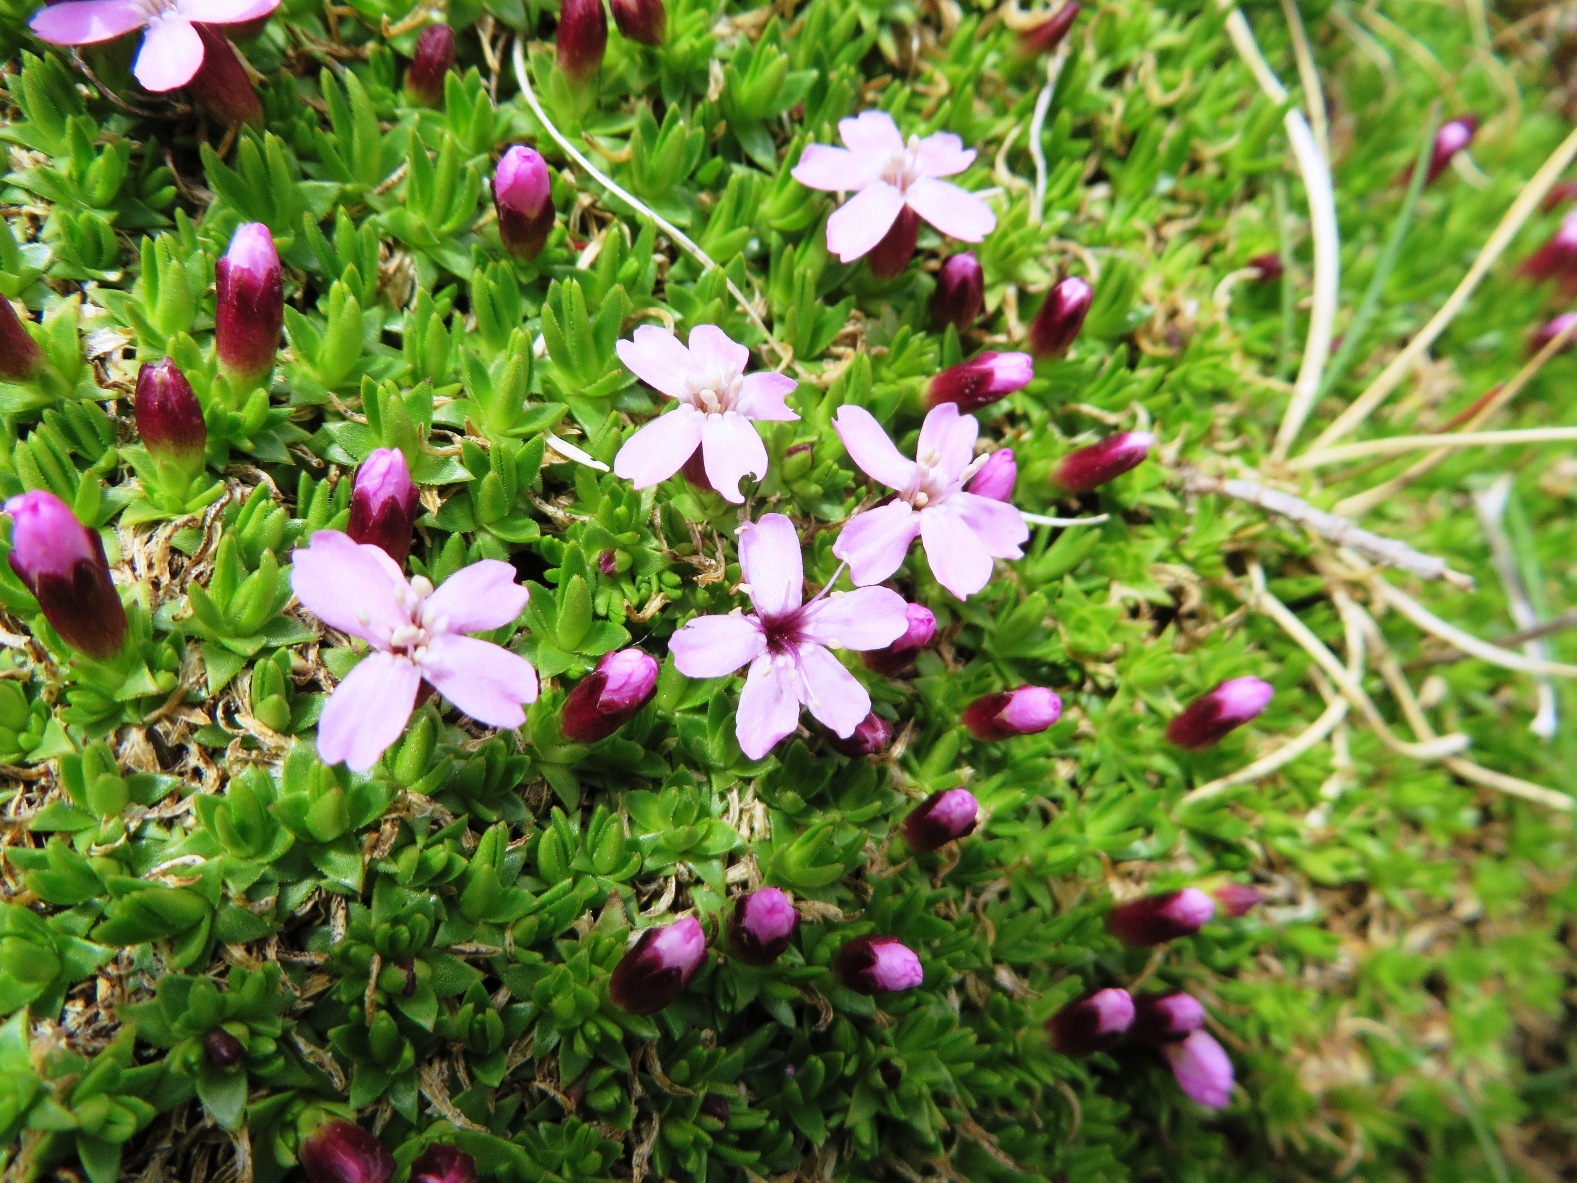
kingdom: Plantae
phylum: Tracheophyta
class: Magnoliopsida
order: Caryophyllales
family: Caryophyllaceae
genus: Silene
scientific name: Silene acaulis
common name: Moss campion
